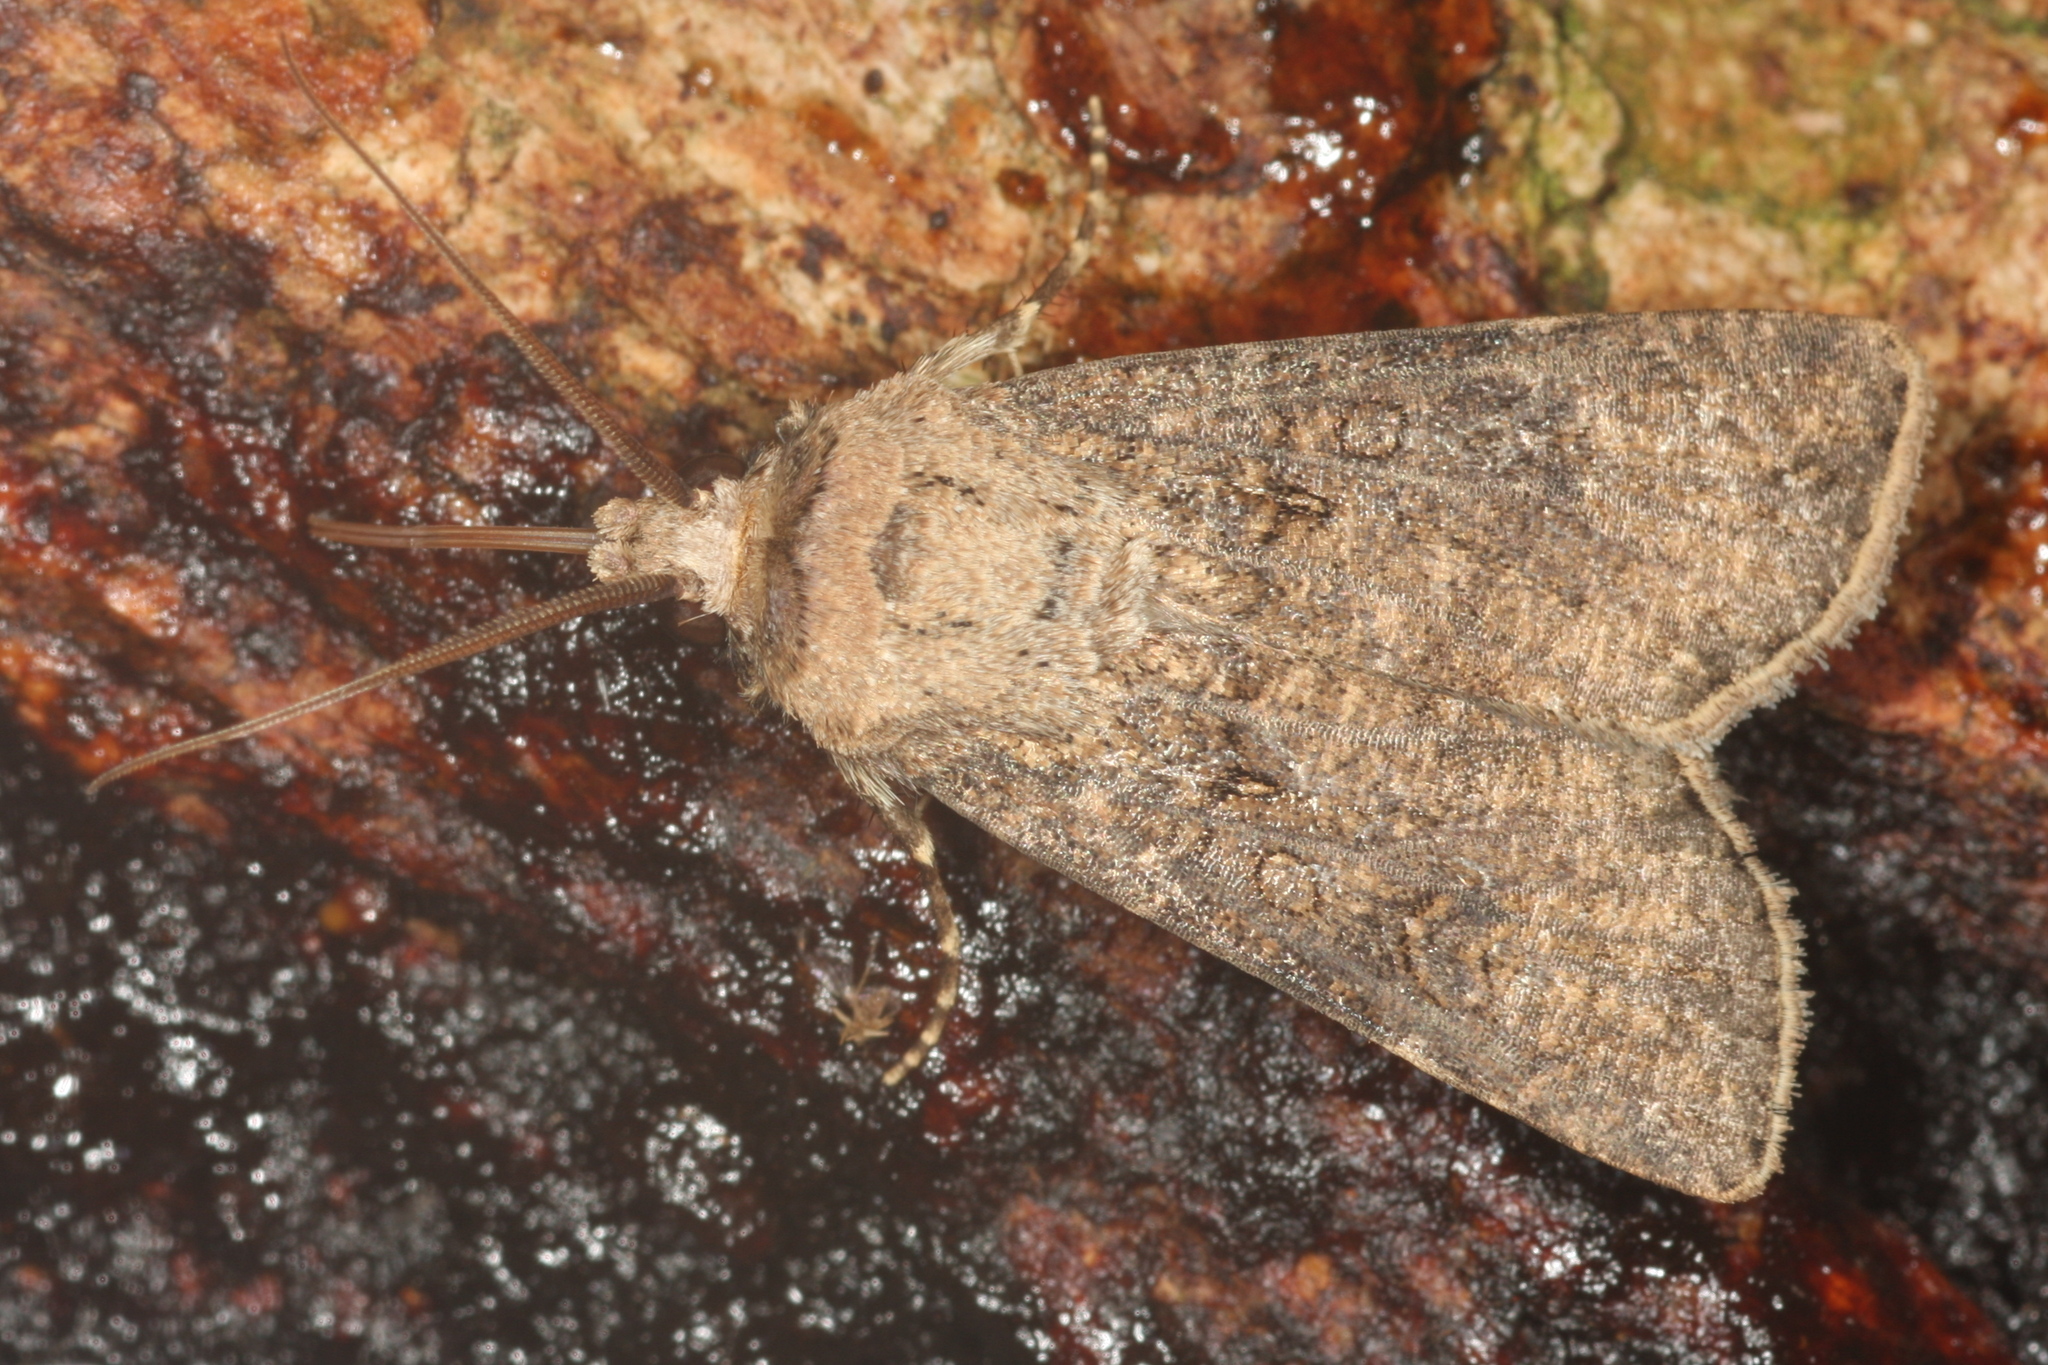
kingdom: Animalia
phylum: Arthropoda
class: Insecta
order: Lepidoptera
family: Noctuidae
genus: Agrotis
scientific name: Agrotis segetum
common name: Turnip moth
